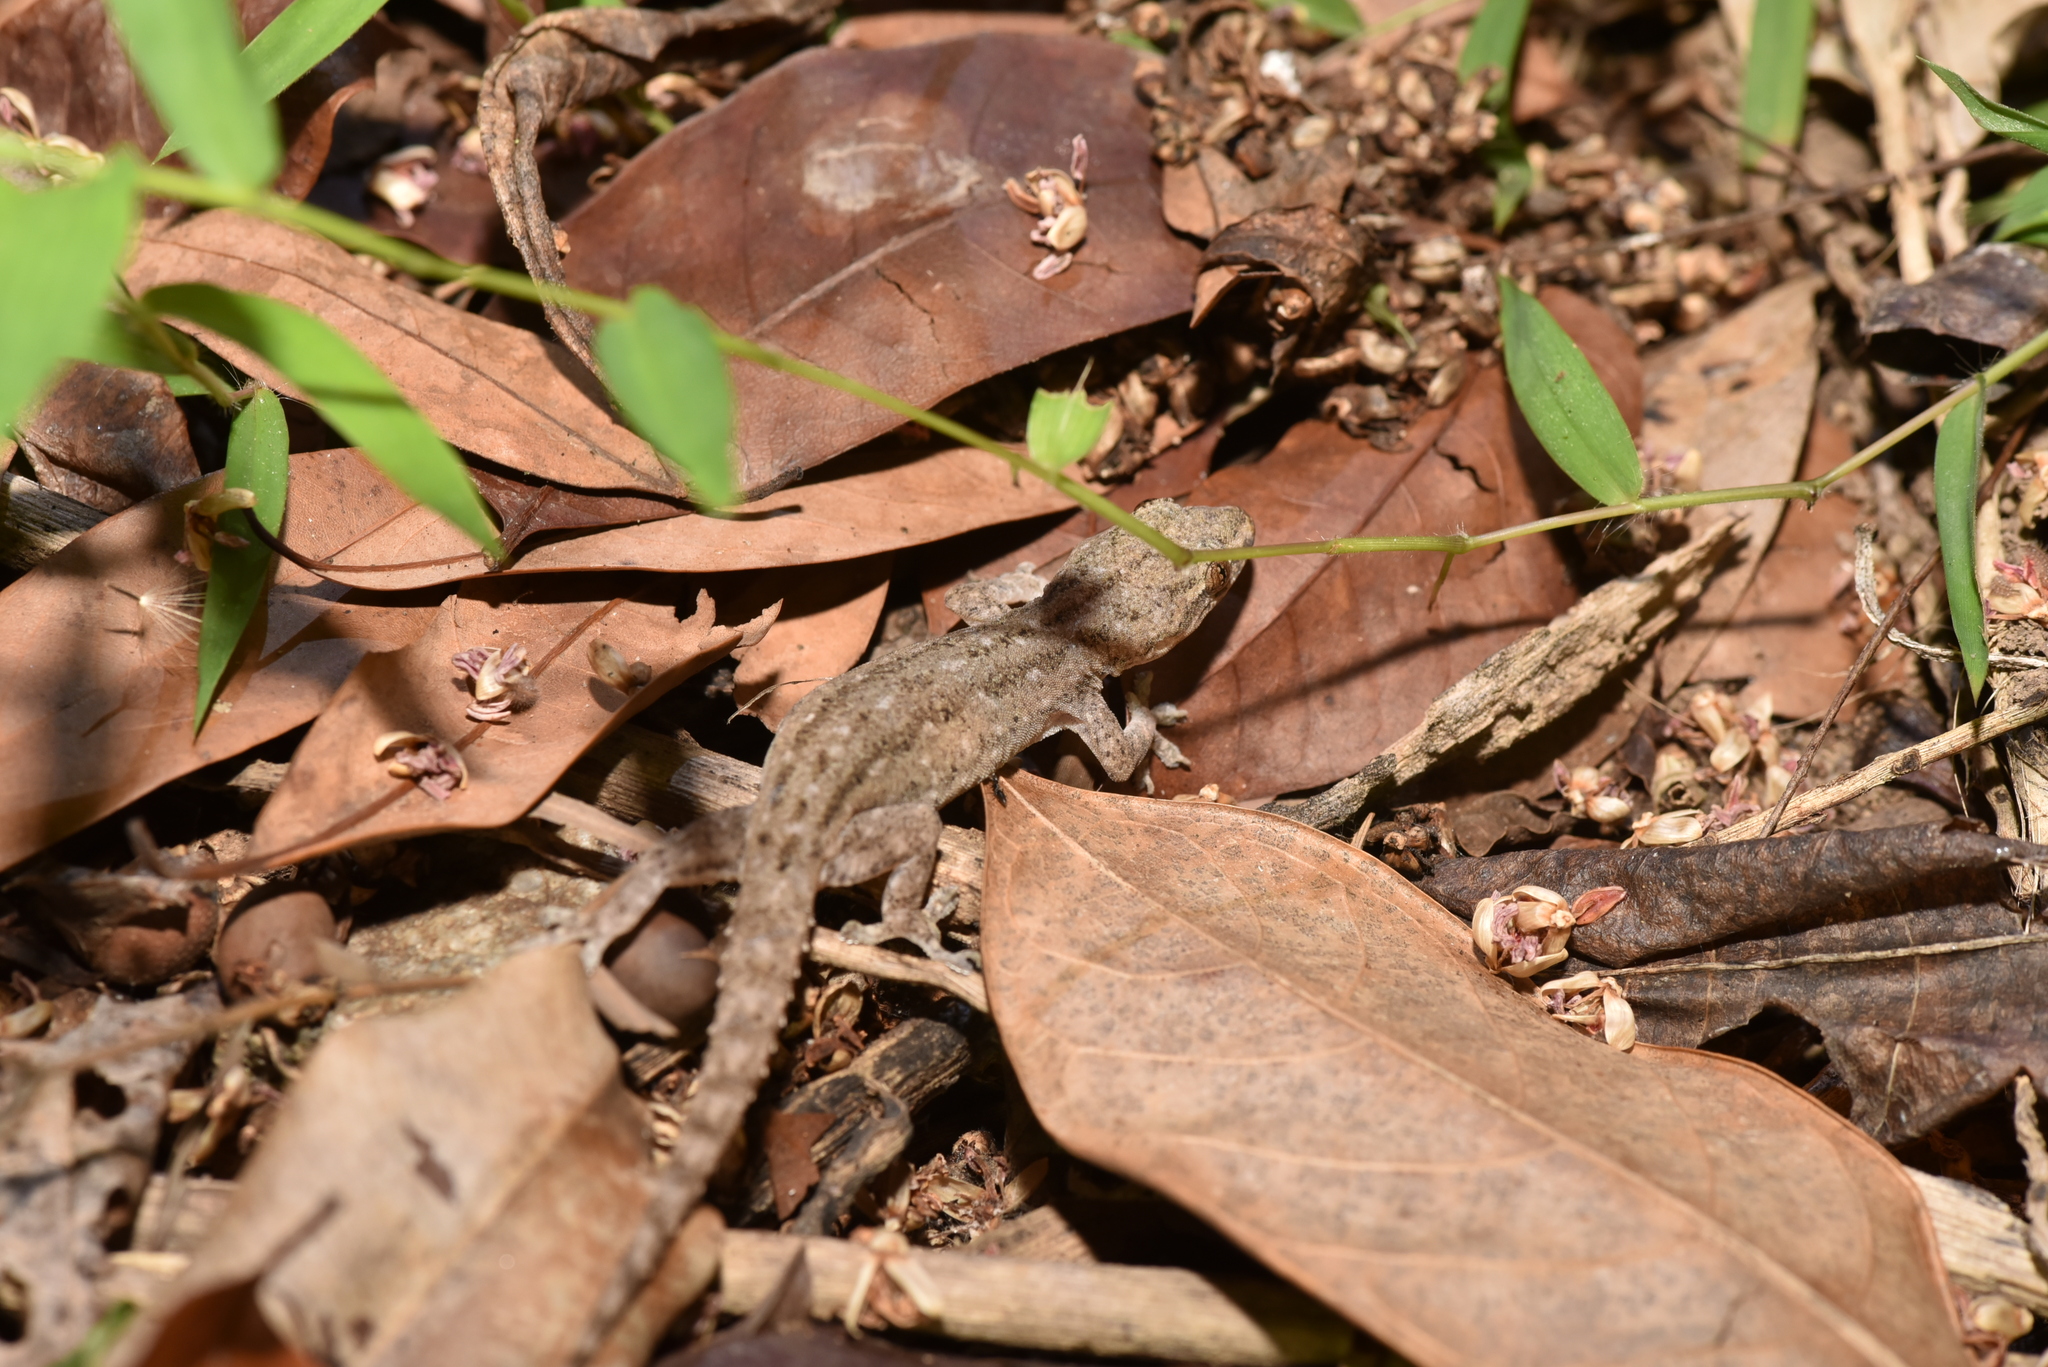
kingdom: Animalia
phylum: Chordata
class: Squamata
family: Gekkonidae
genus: Hemidactylus
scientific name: Hemidactylus frenatus
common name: Common house gecko
